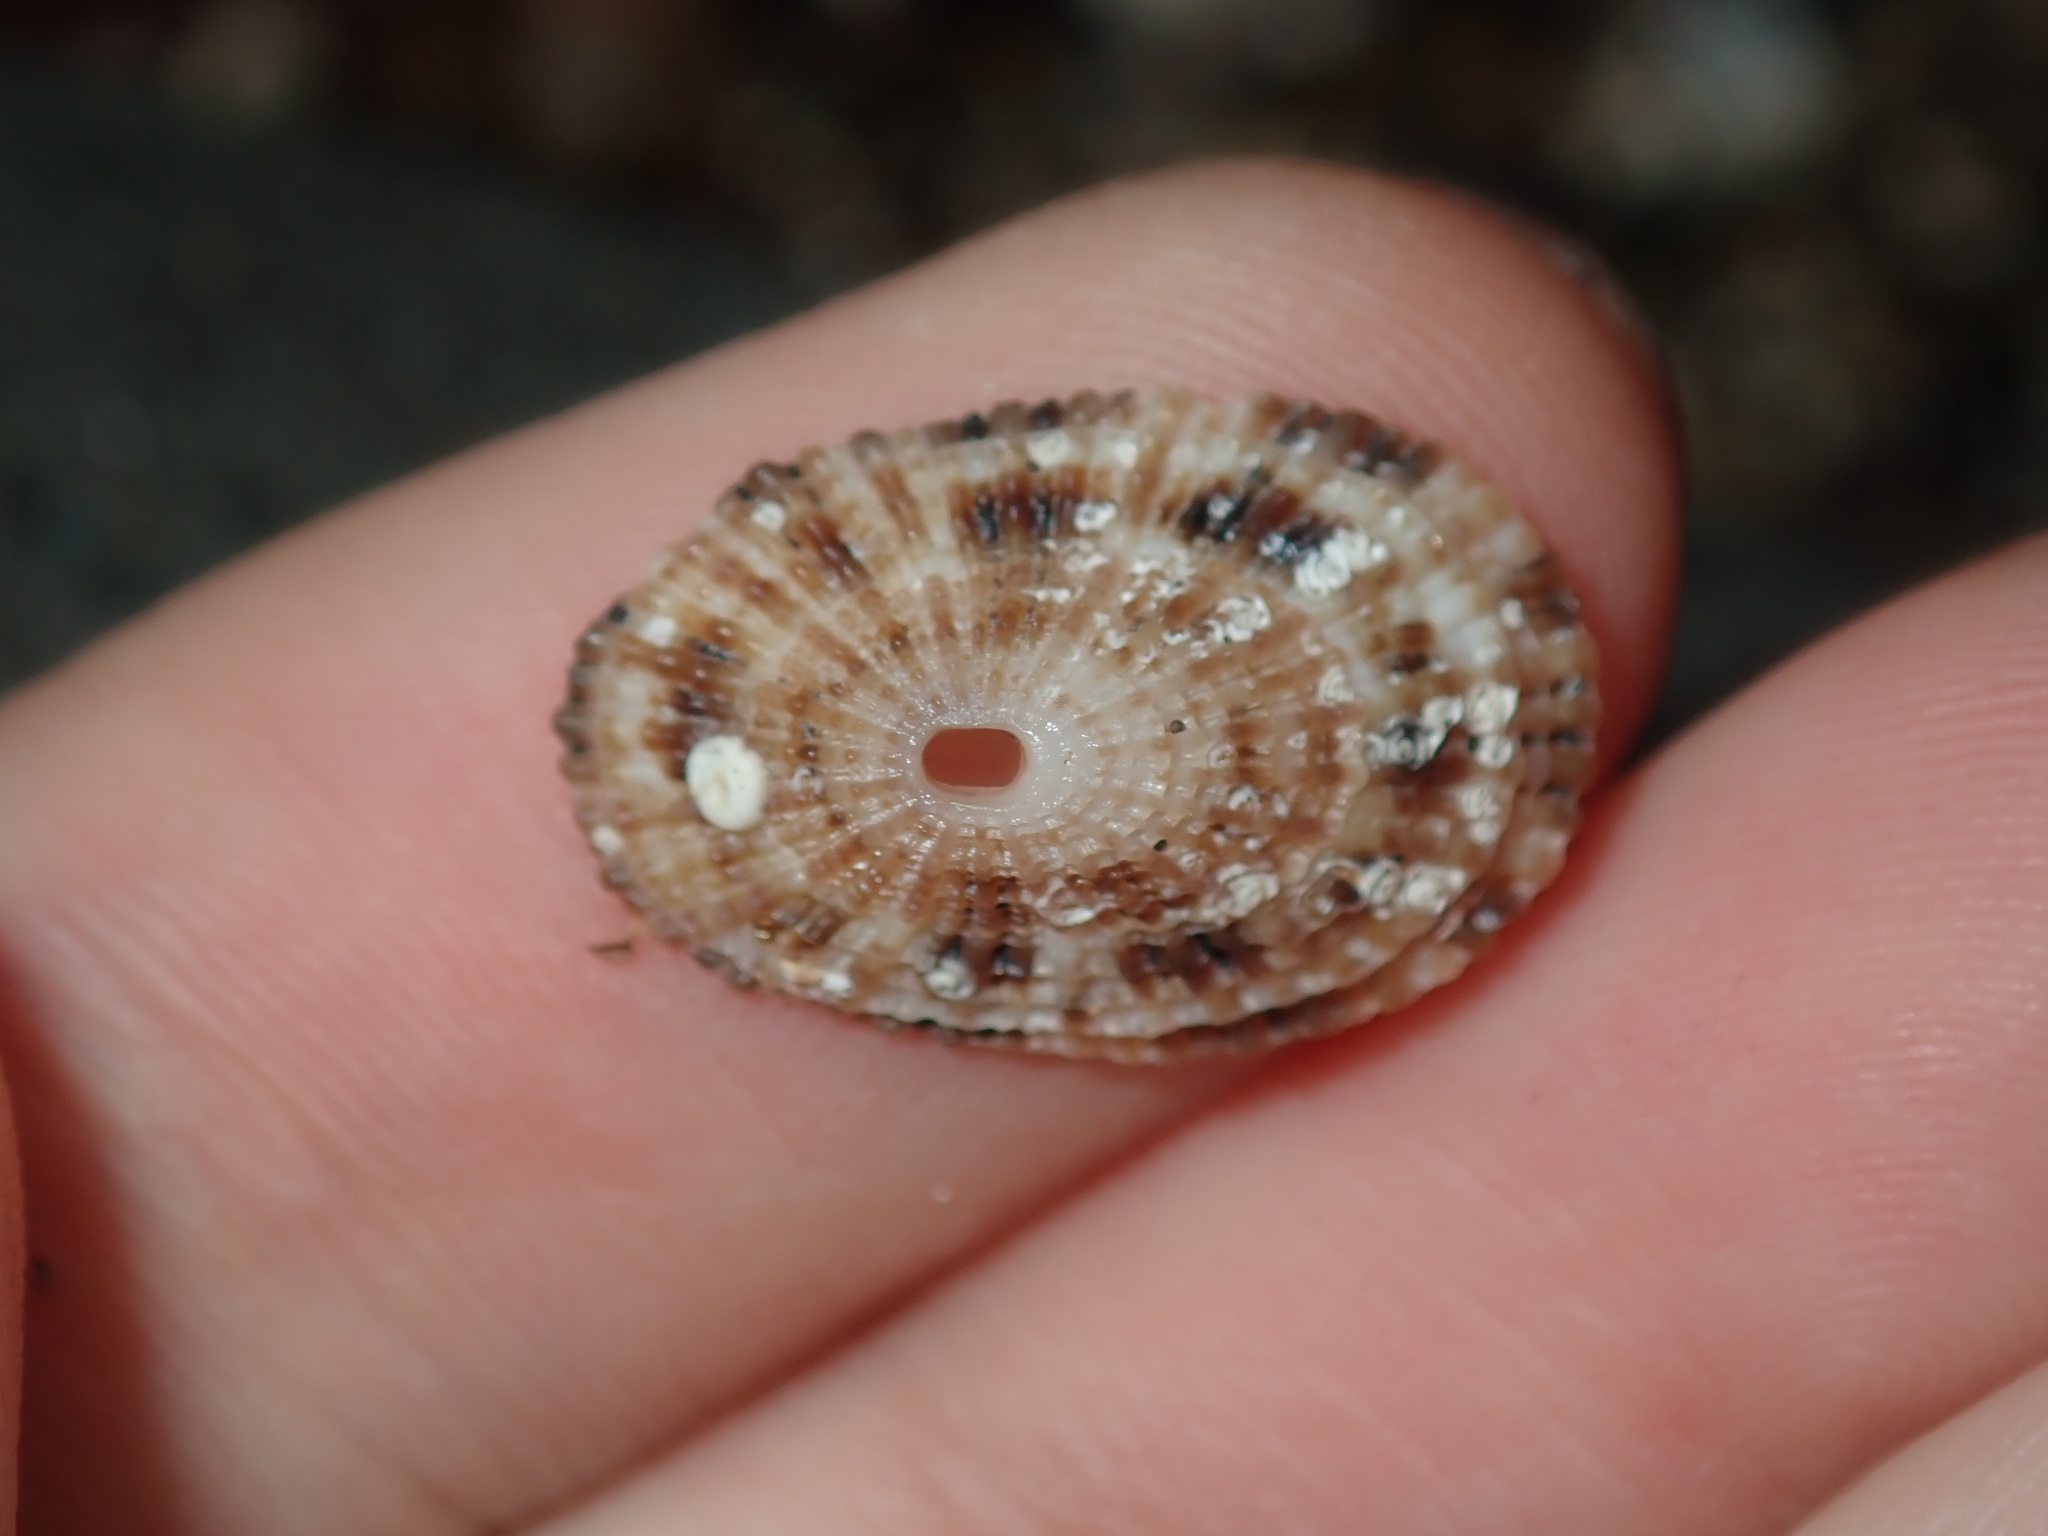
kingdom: Animalia
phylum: Mollusca
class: Gastropoda
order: Lepetellida
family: Fissurellidae
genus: Diodora
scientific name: Diodora lineata
